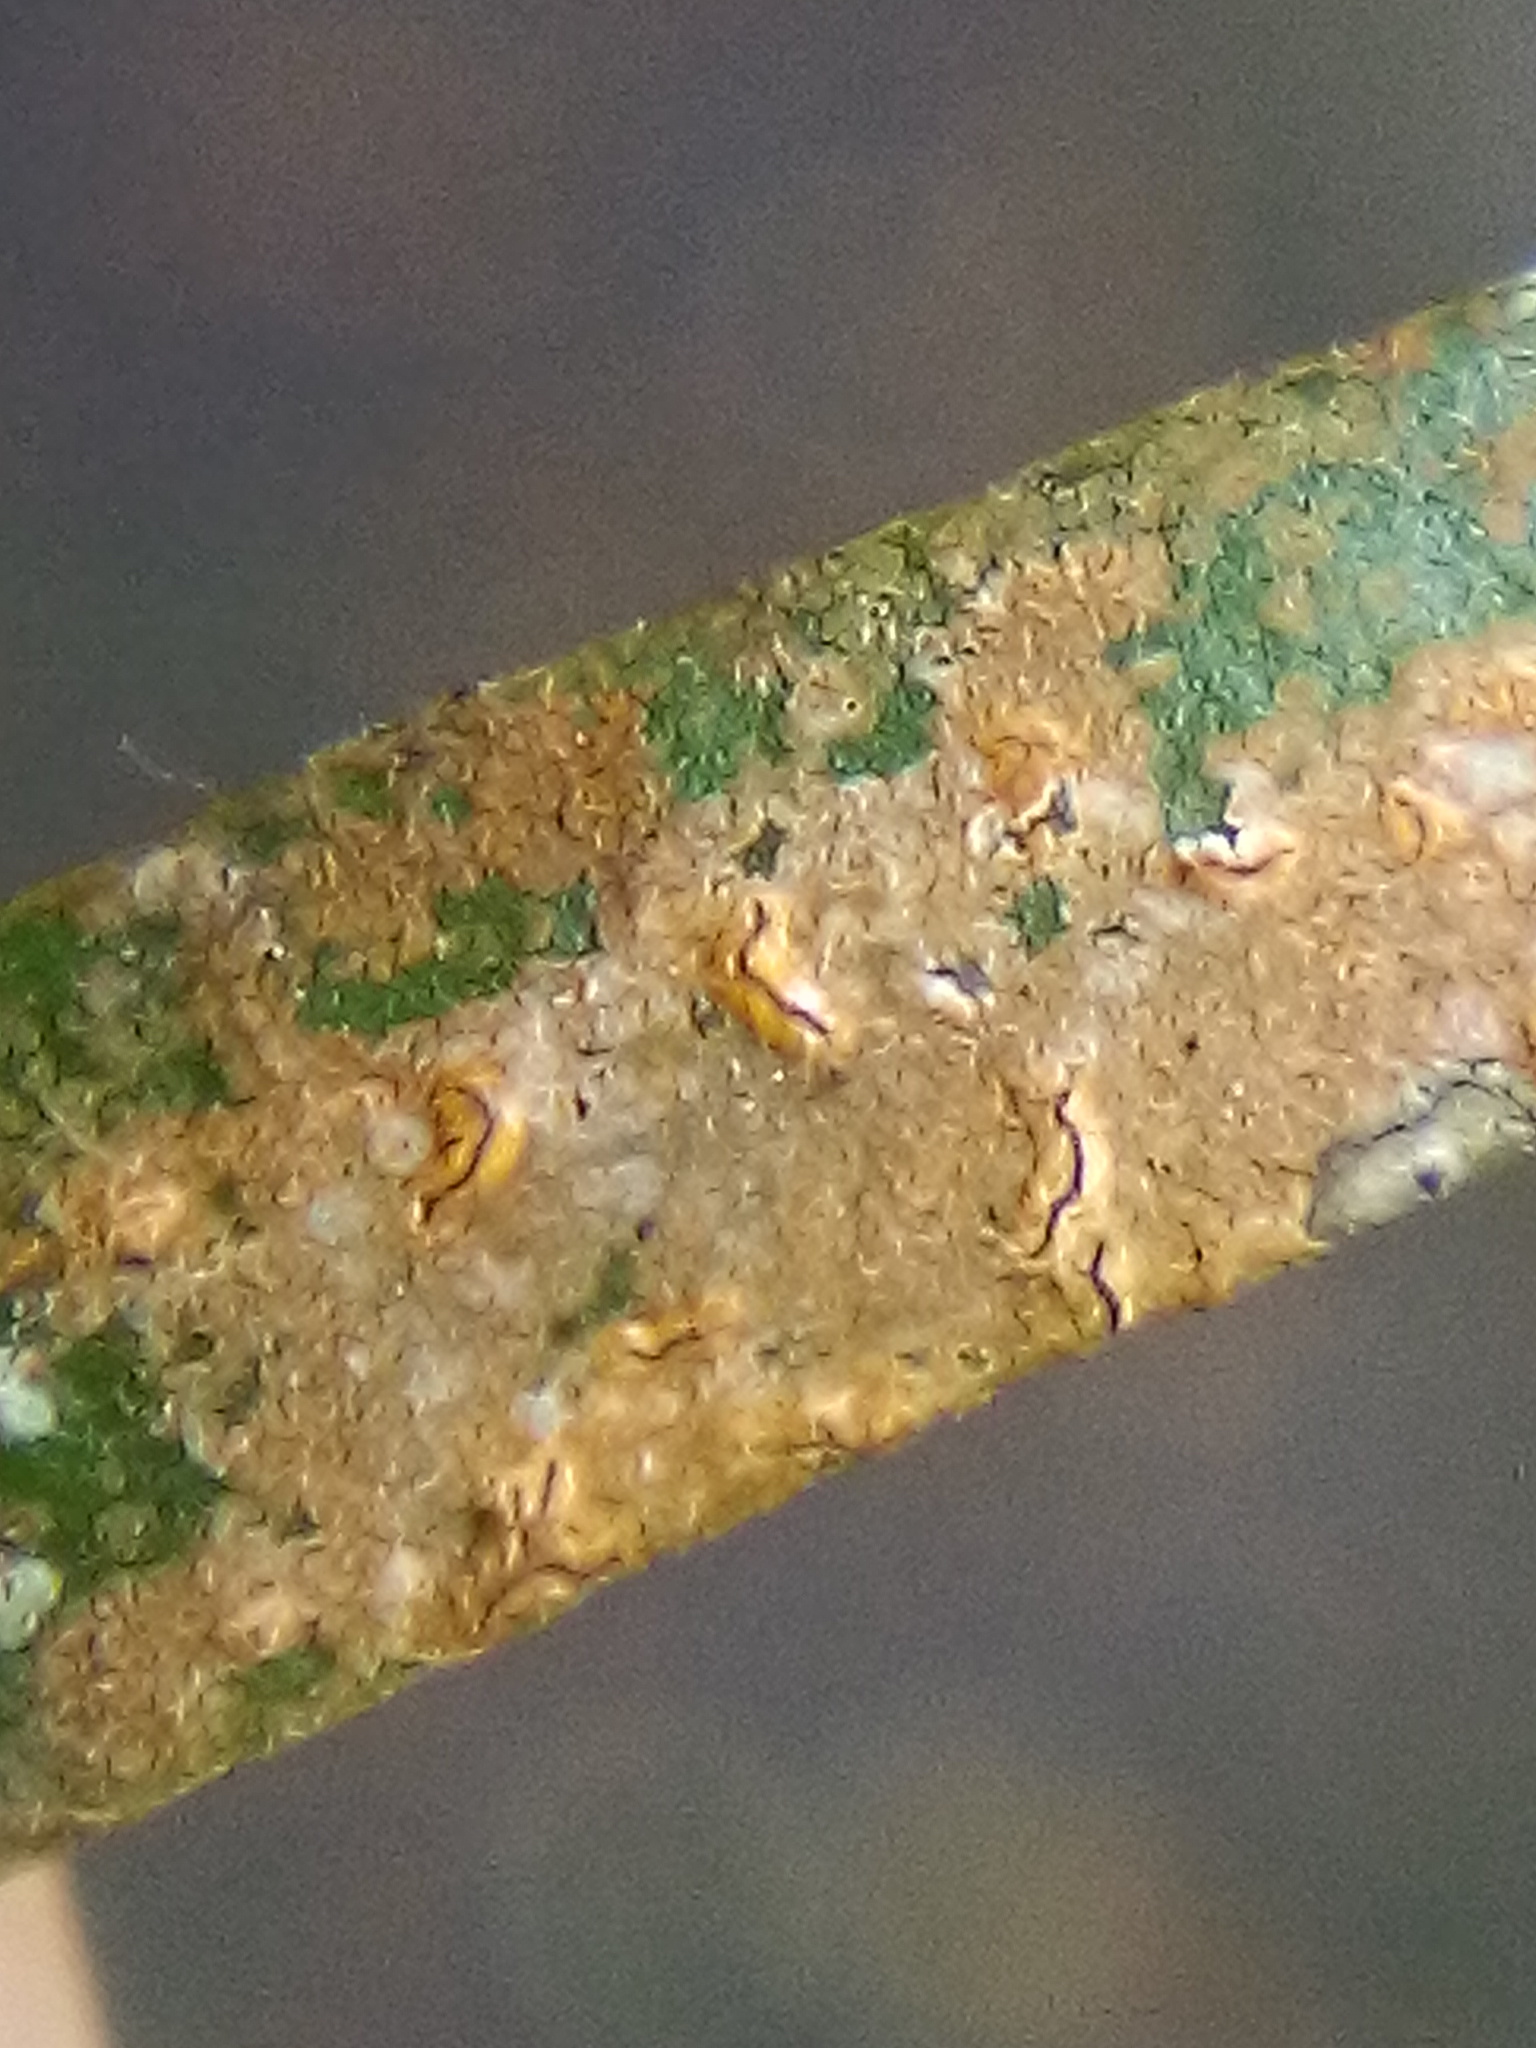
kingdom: Fungi
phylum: Ascomycota
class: Arthoniomycetes
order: Arthoniales
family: Roccellaceae
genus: Enterographa
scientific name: Enterographa bella
